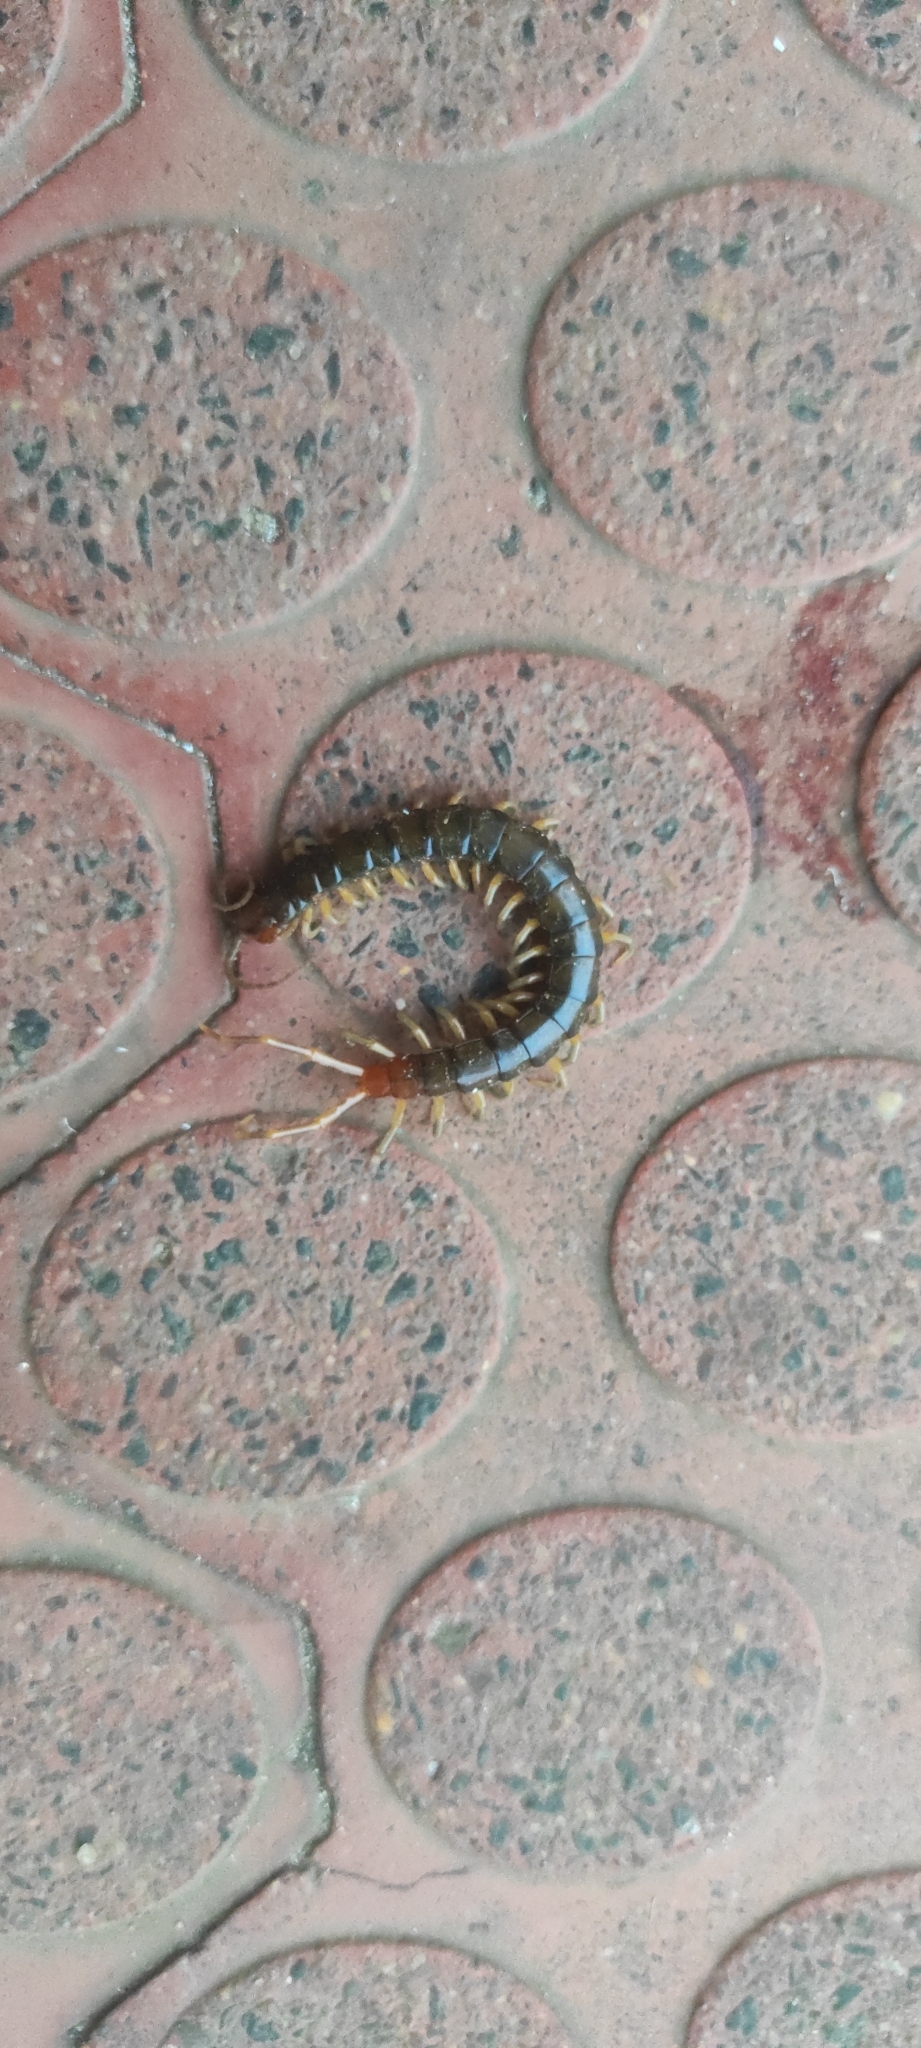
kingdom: Animalia
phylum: Arthropoda
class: Chilopoda
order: Scolopendromorpha
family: Scolopendridae
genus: Rhysida
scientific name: Rhysida longipes
